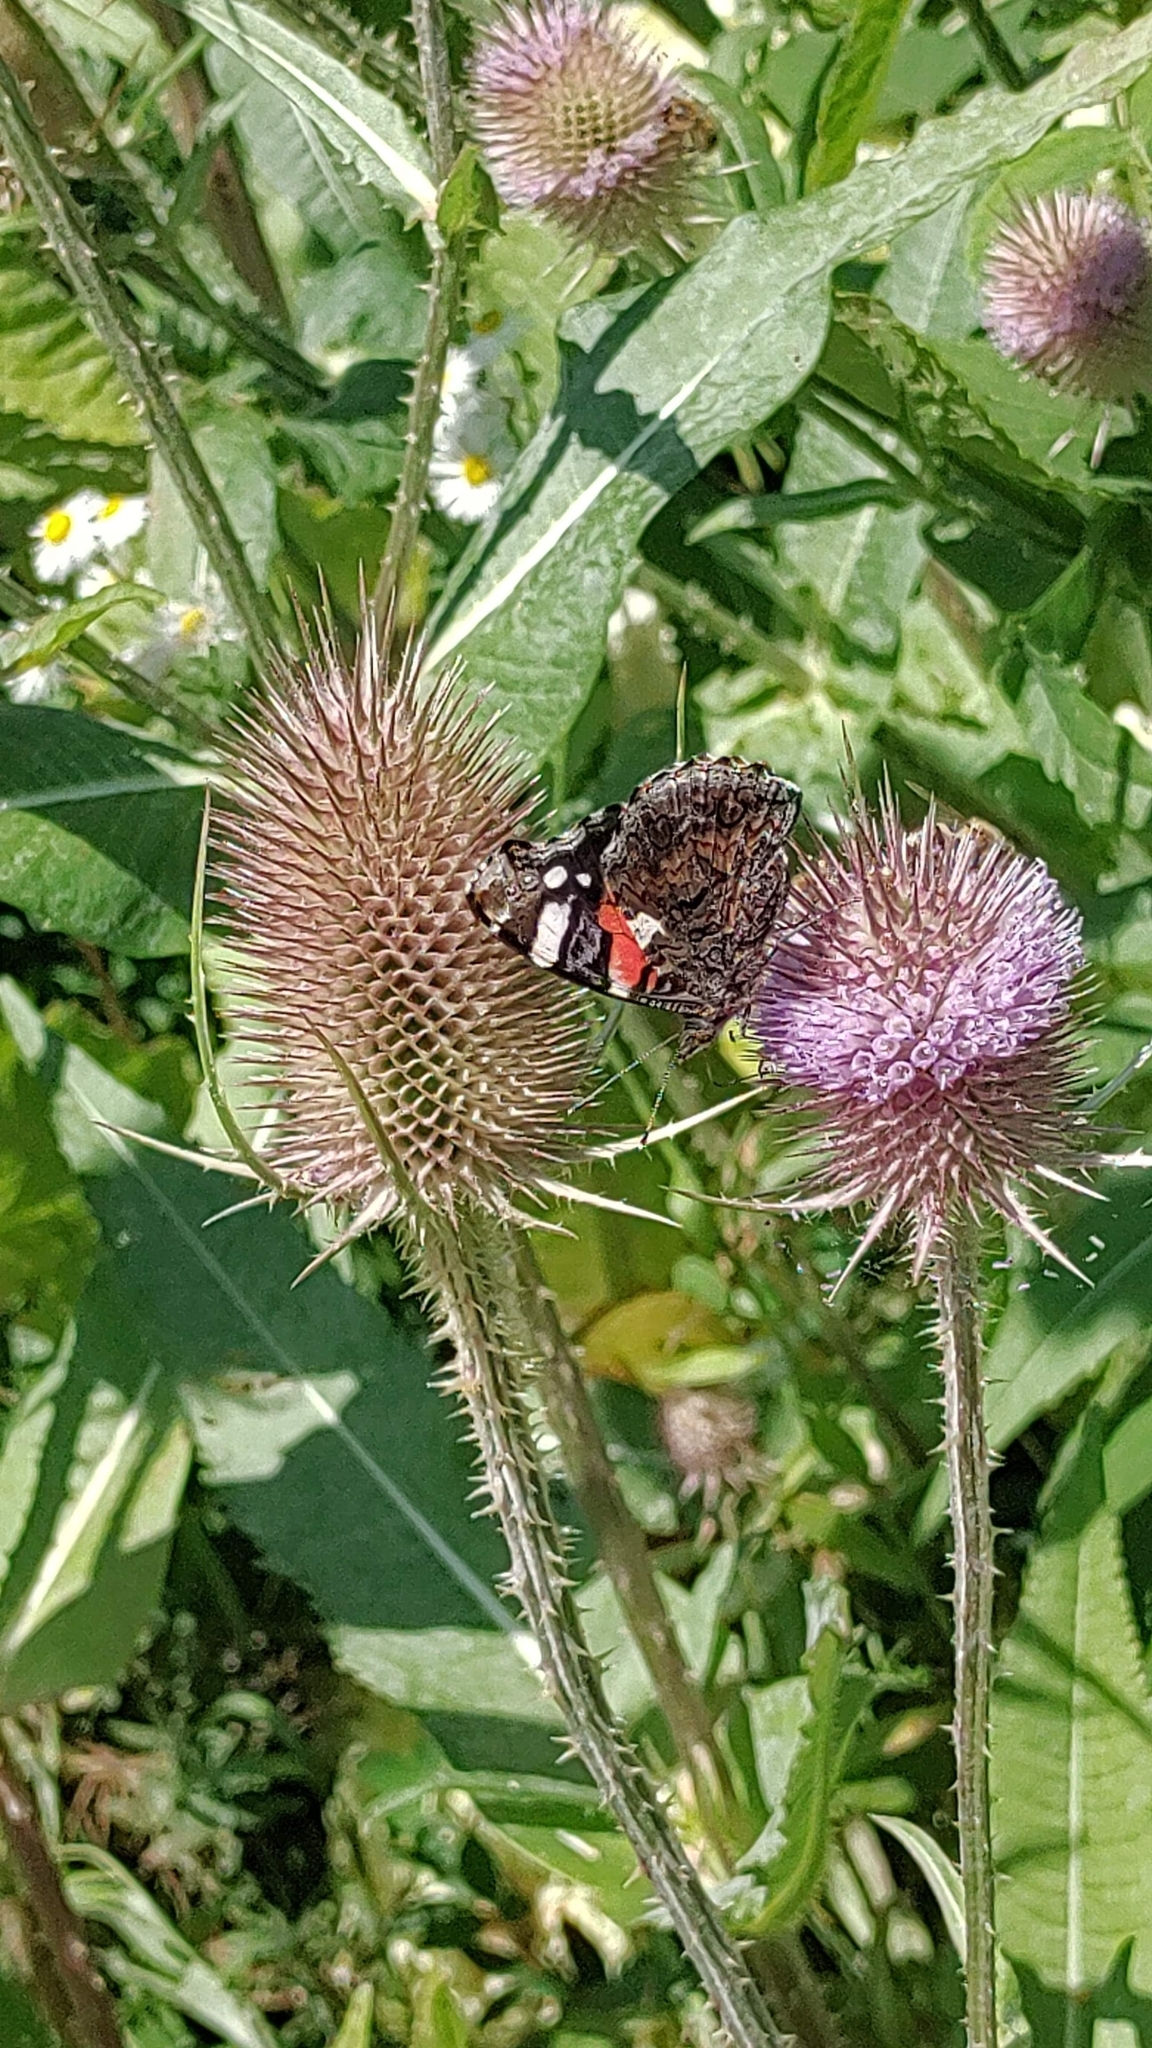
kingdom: Animalia
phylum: Arthropoda
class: Insecta
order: Lepidoptera
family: Nymphalidae
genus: Vanessa
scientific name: Vanessa atalanta
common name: Red admiral
